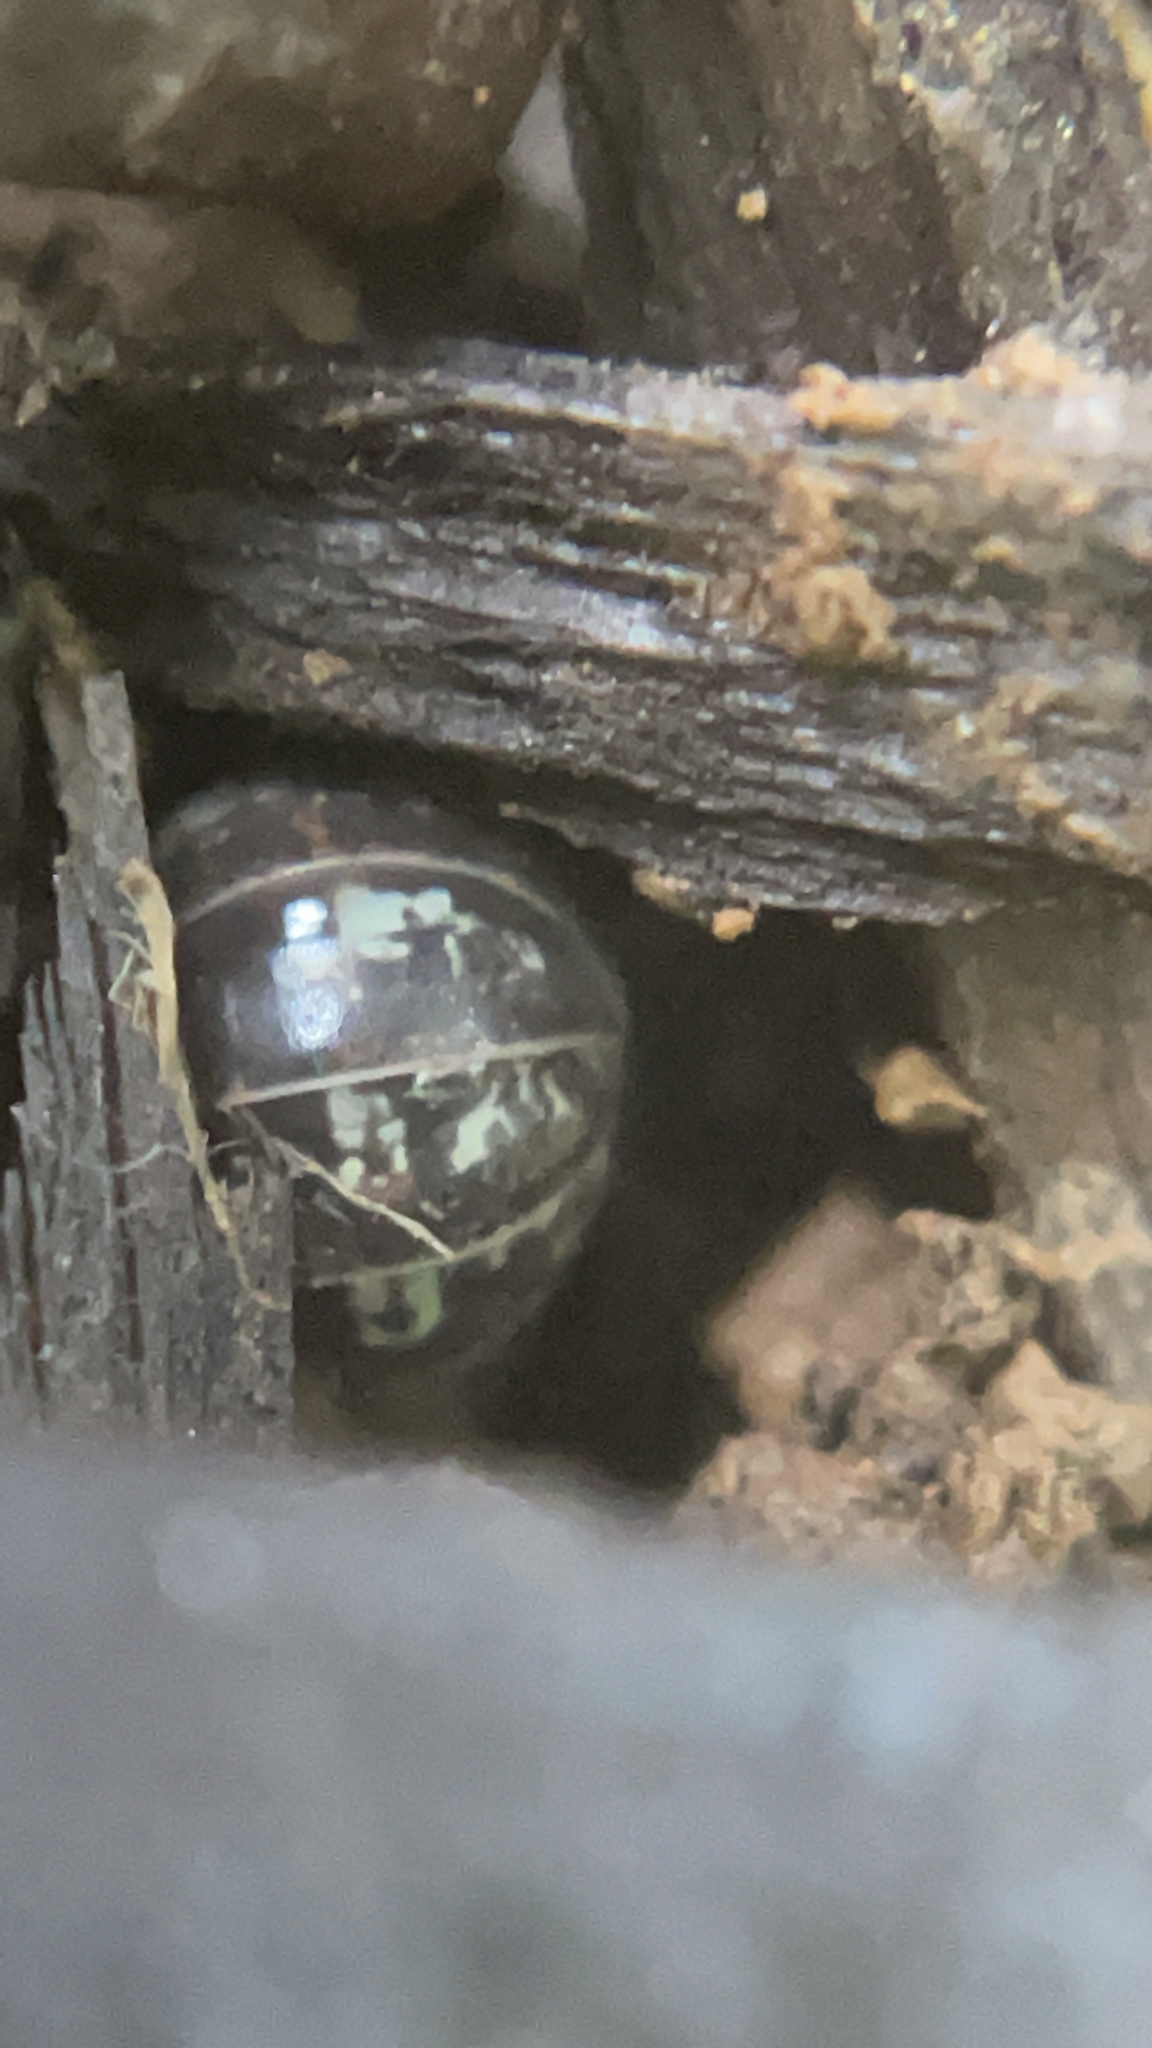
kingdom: Animalia
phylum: Arthropoda
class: Malacostraca
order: Isopoda
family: Armadillidiidae
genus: Armadillidium
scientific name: Armadillidium vulgare
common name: Common pill woodlouse
